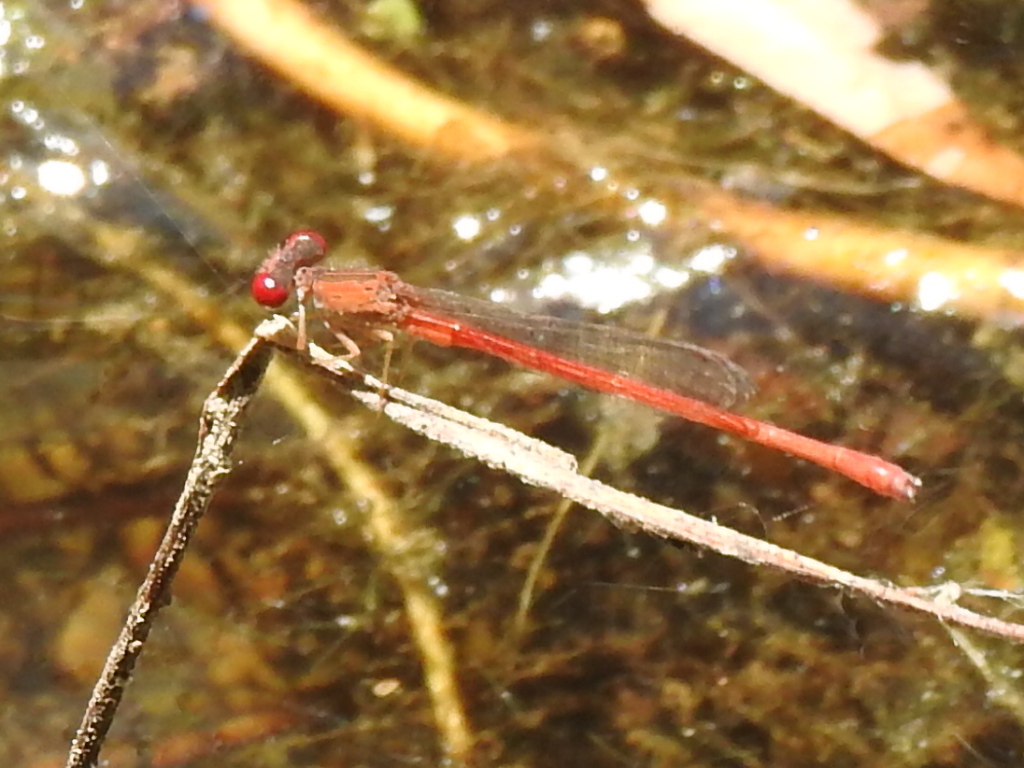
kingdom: Animalia
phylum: Arthropoda
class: Insecta
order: Odonata
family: Coenagrionidae
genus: Telebasis
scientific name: Telebasis salva
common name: Desert firetail
